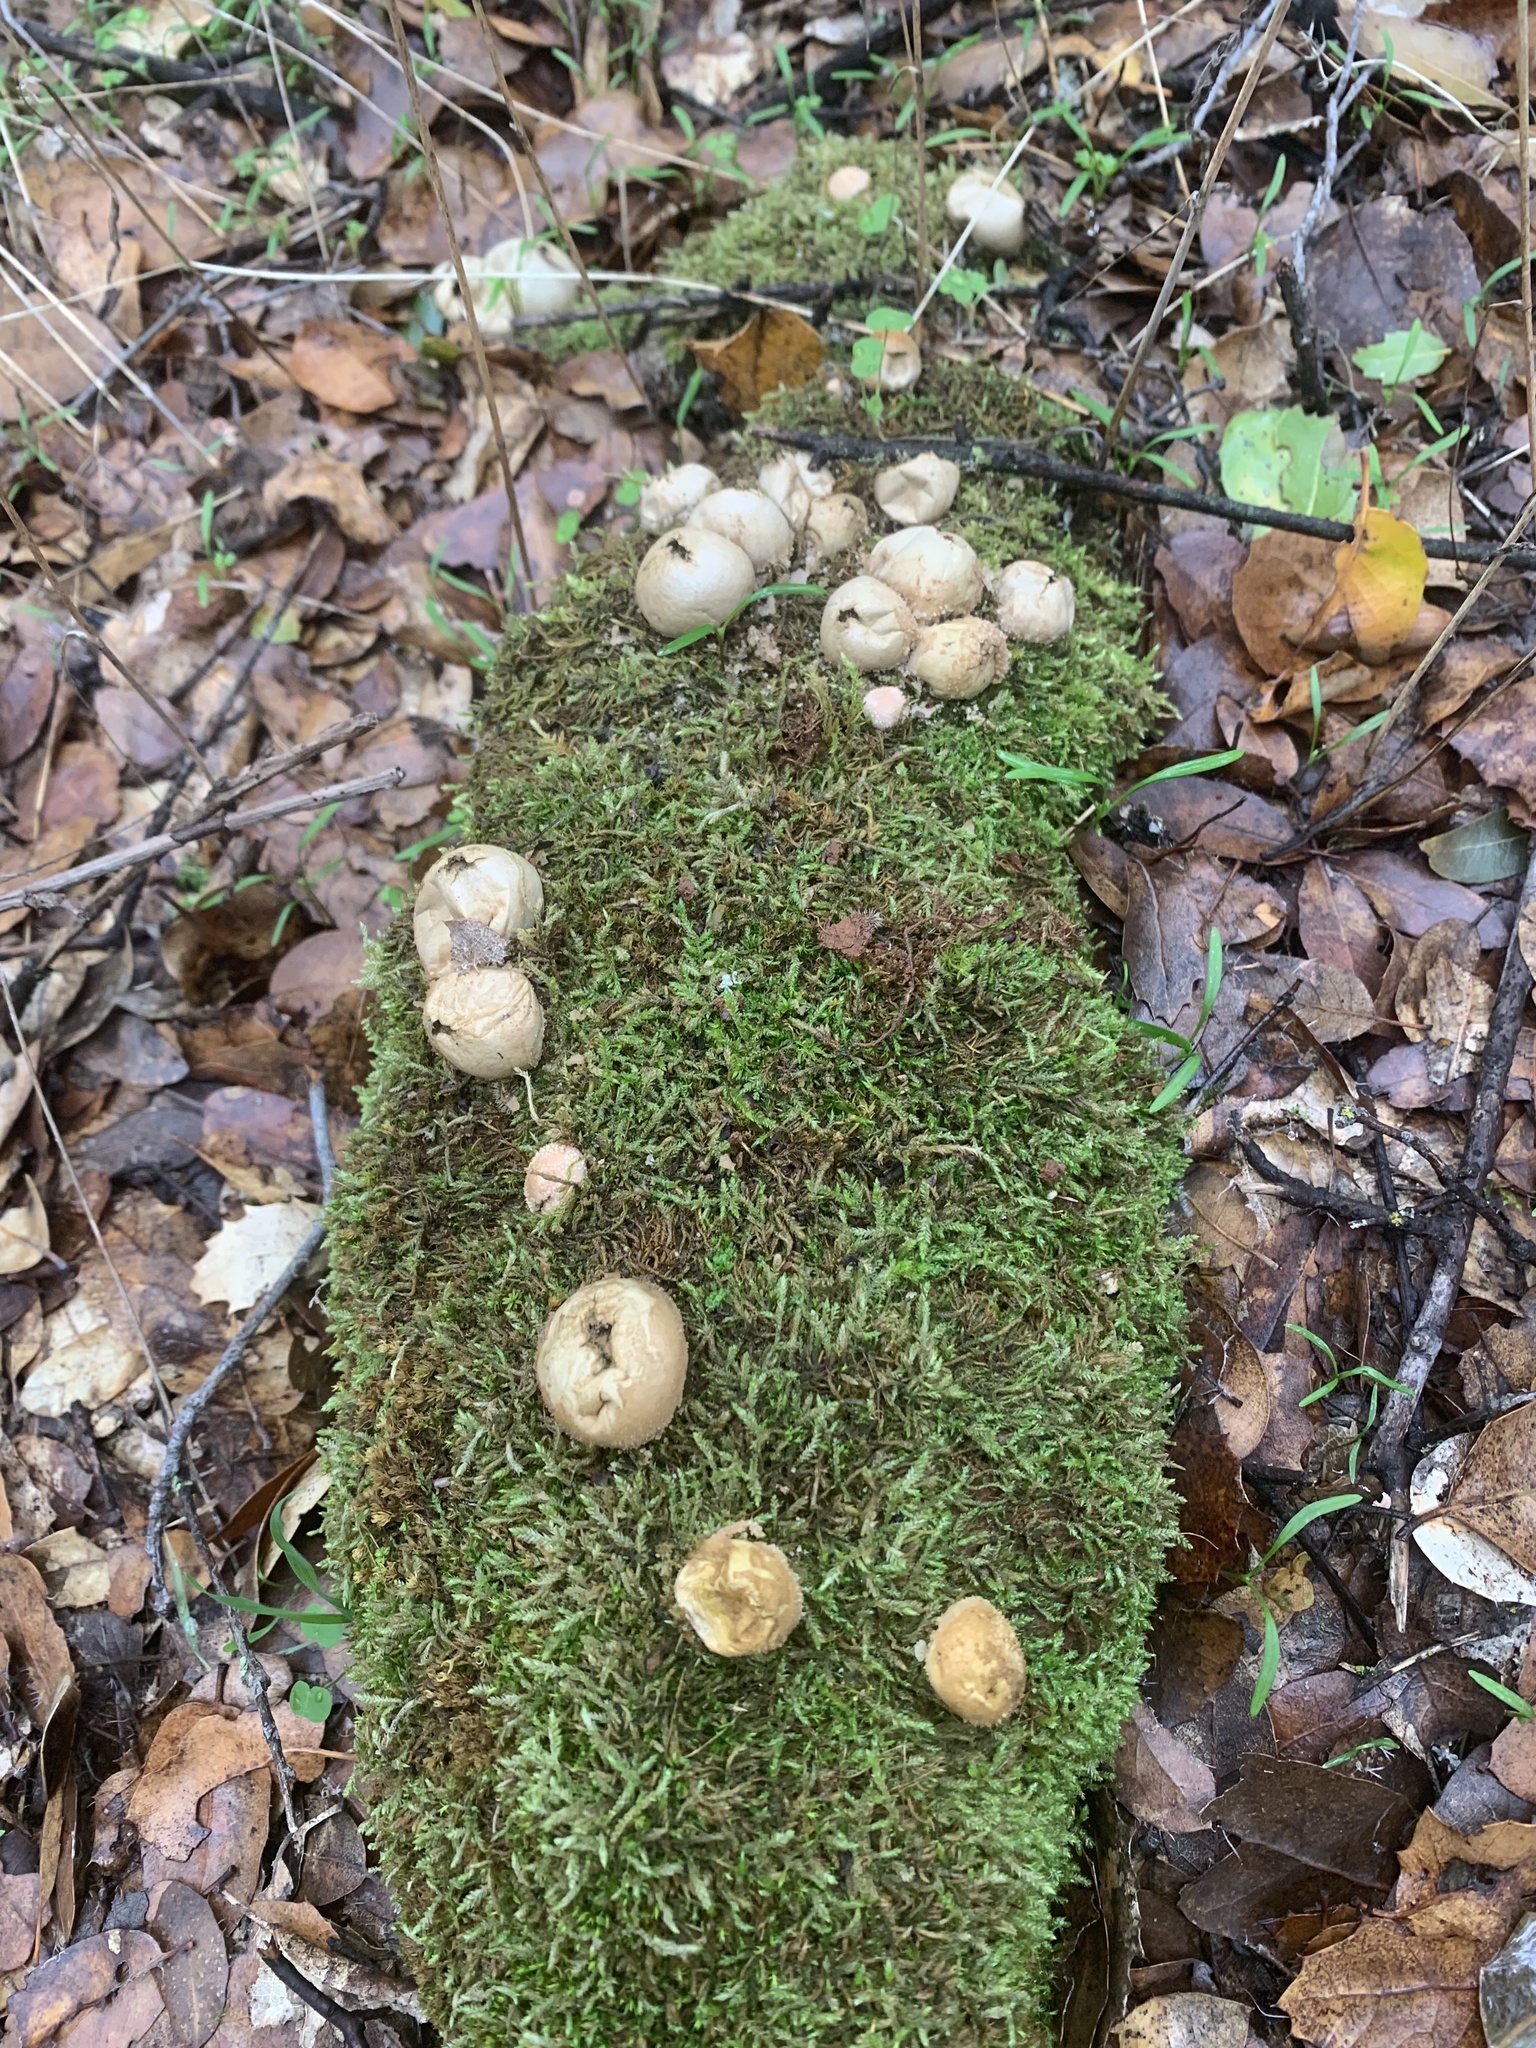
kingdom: Fungi
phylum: Basidiomycota
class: Agaricomycetes
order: Agaricales
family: Lycoperdaceae
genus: Apioperdon
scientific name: Apioperdon pyriforme
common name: Pear-shaped puffball
